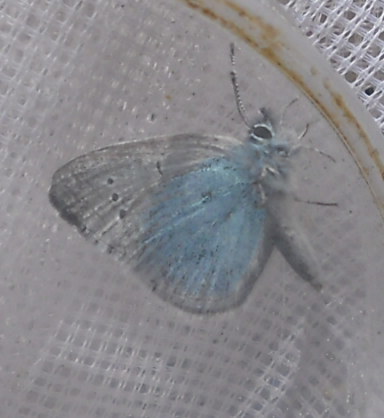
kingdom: Animalia
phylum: Arthropoda
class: Insecta
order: Lepidoptera
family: Lycaenidae
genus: Glaucopsyche
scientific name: Glaucopsyche alexis
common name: Green-underside blue
